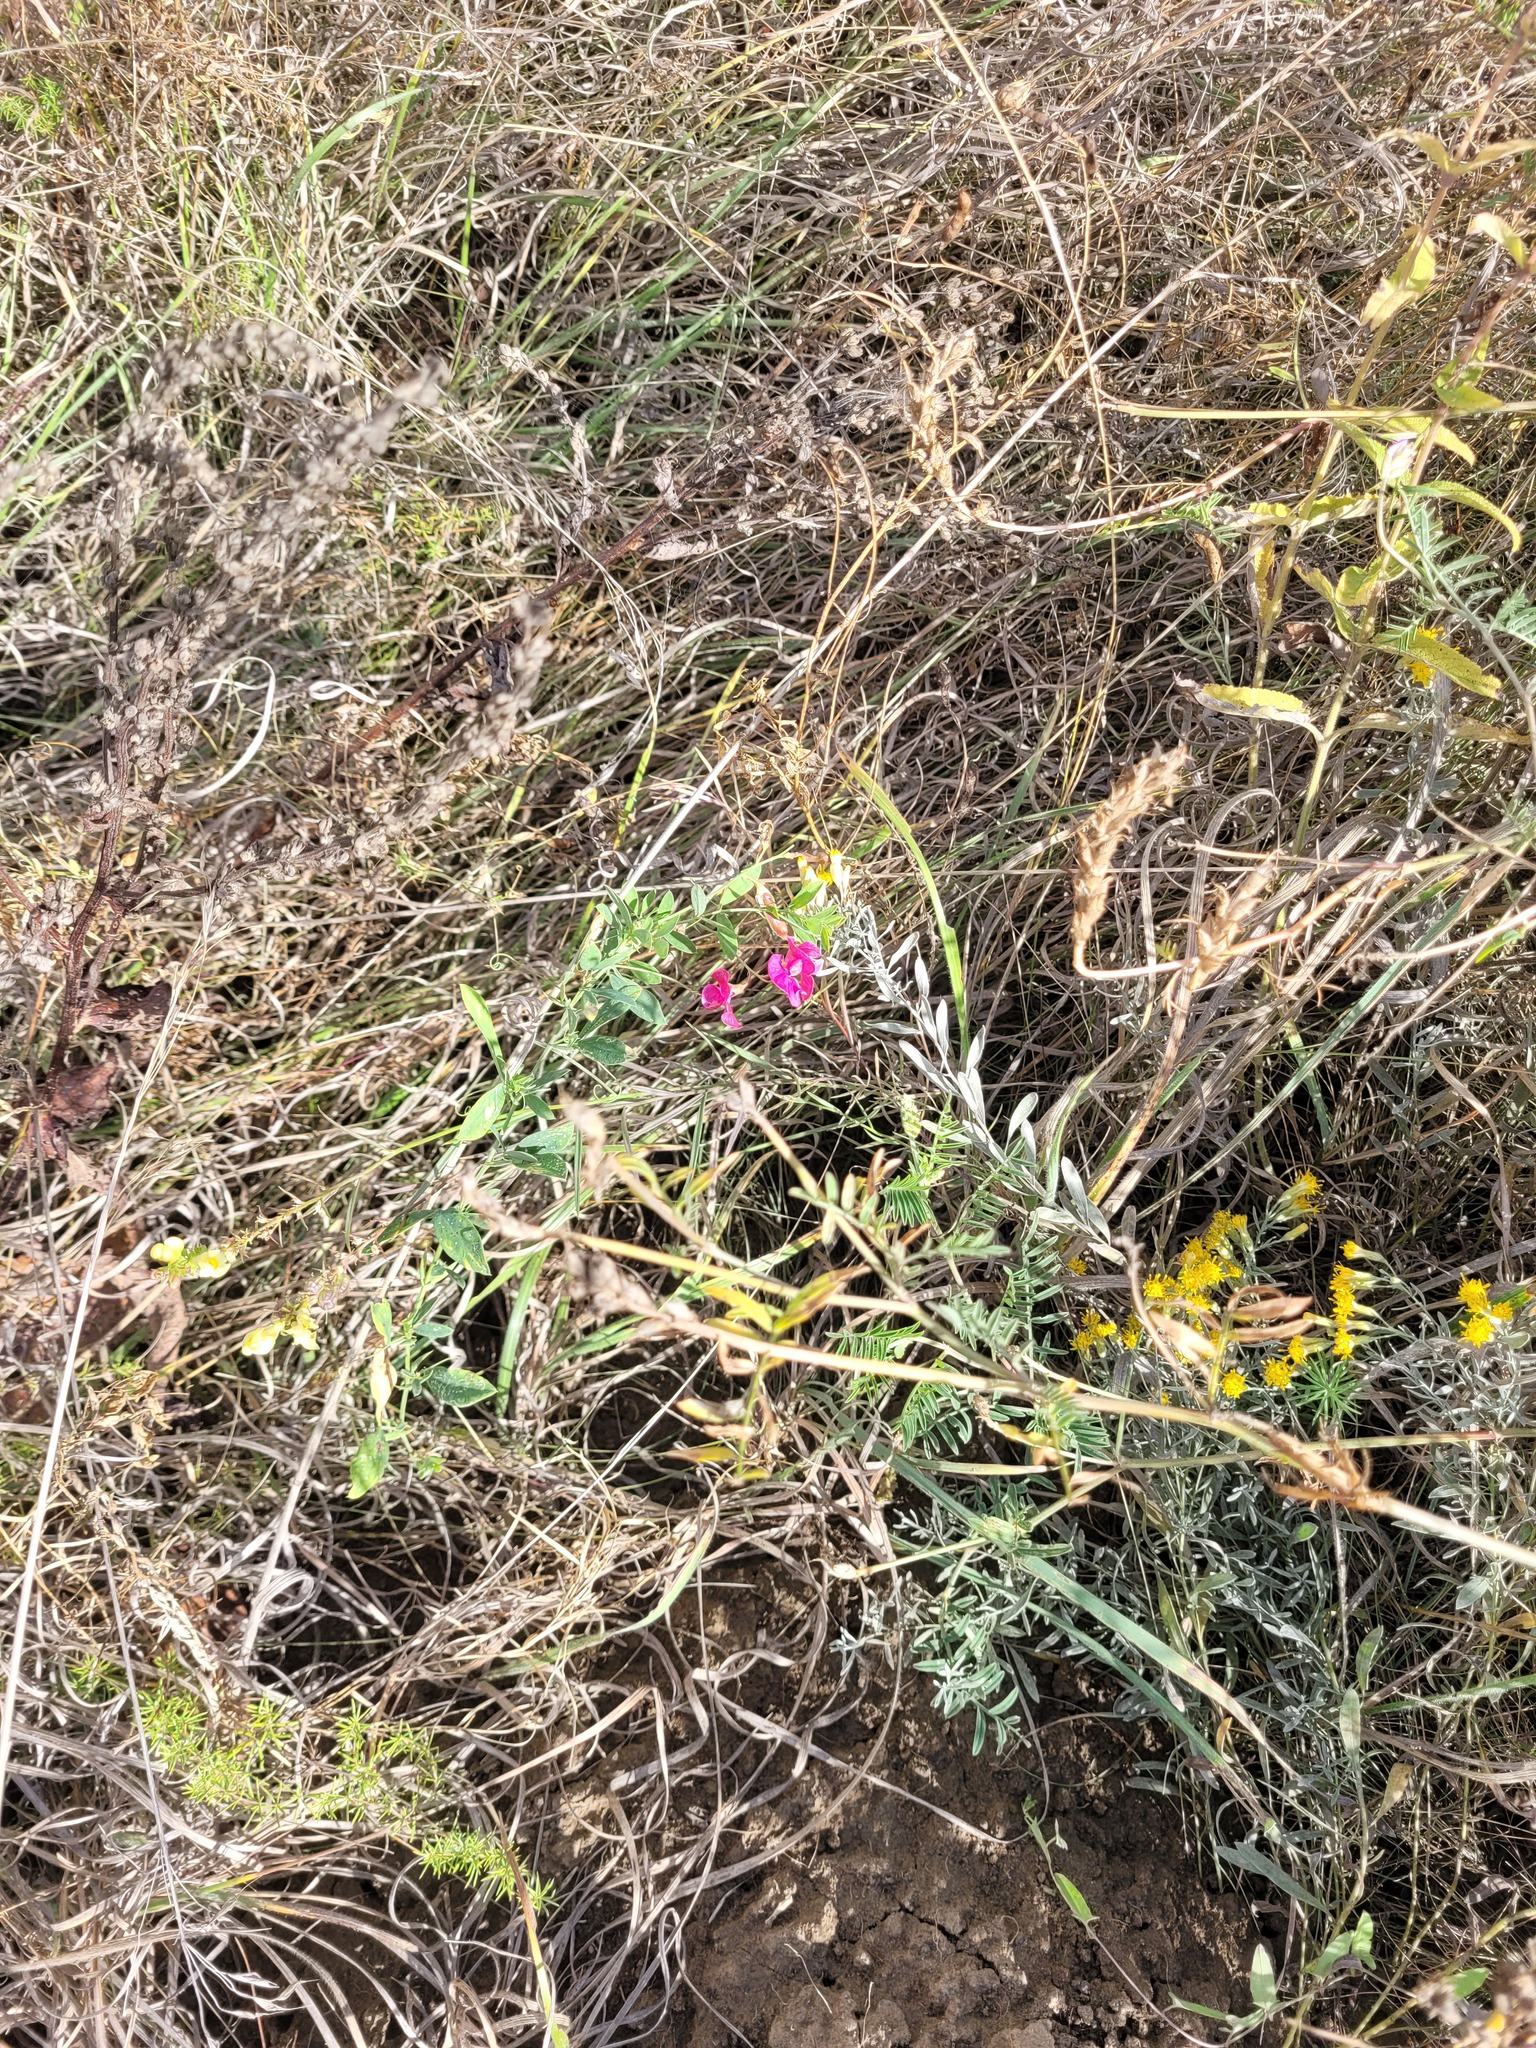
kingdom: Plantae
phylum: Tracheophyta
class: Magnoliopsida
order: Fabales
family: Fabaceae
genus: Lathyrus
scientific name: Lathyrus tuberosus
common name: Tuberous pea
